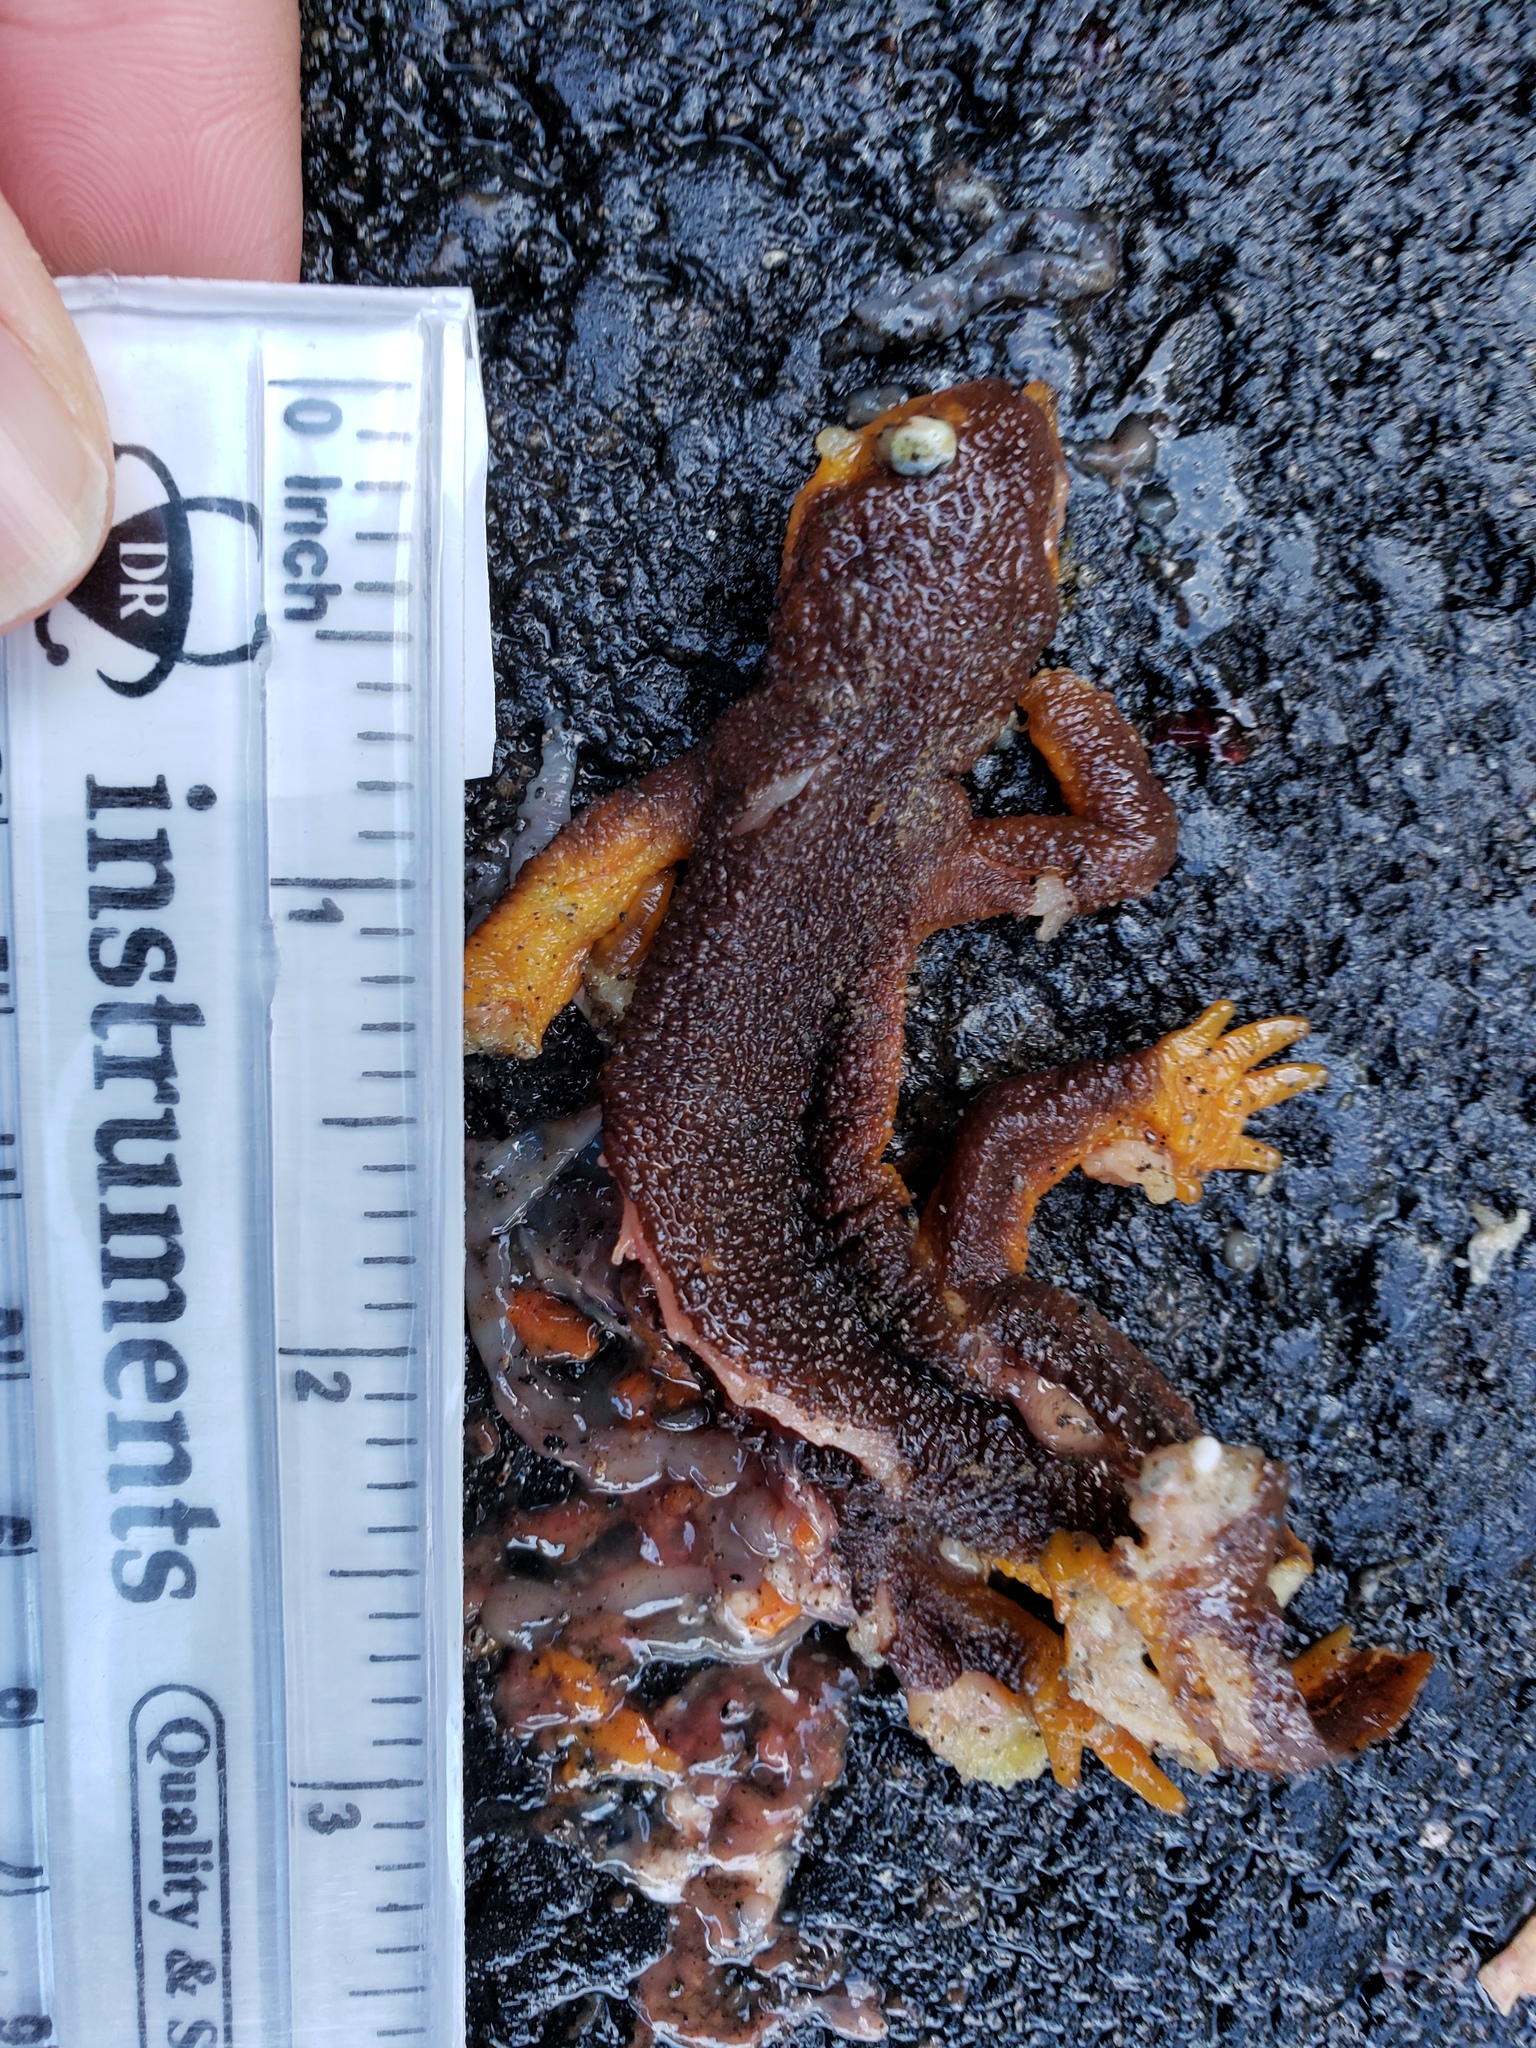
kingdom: Animalia
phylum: Chordata
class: Amphibia
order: Caudata
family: Salamandridae
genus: Taricha
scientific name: Taricha
